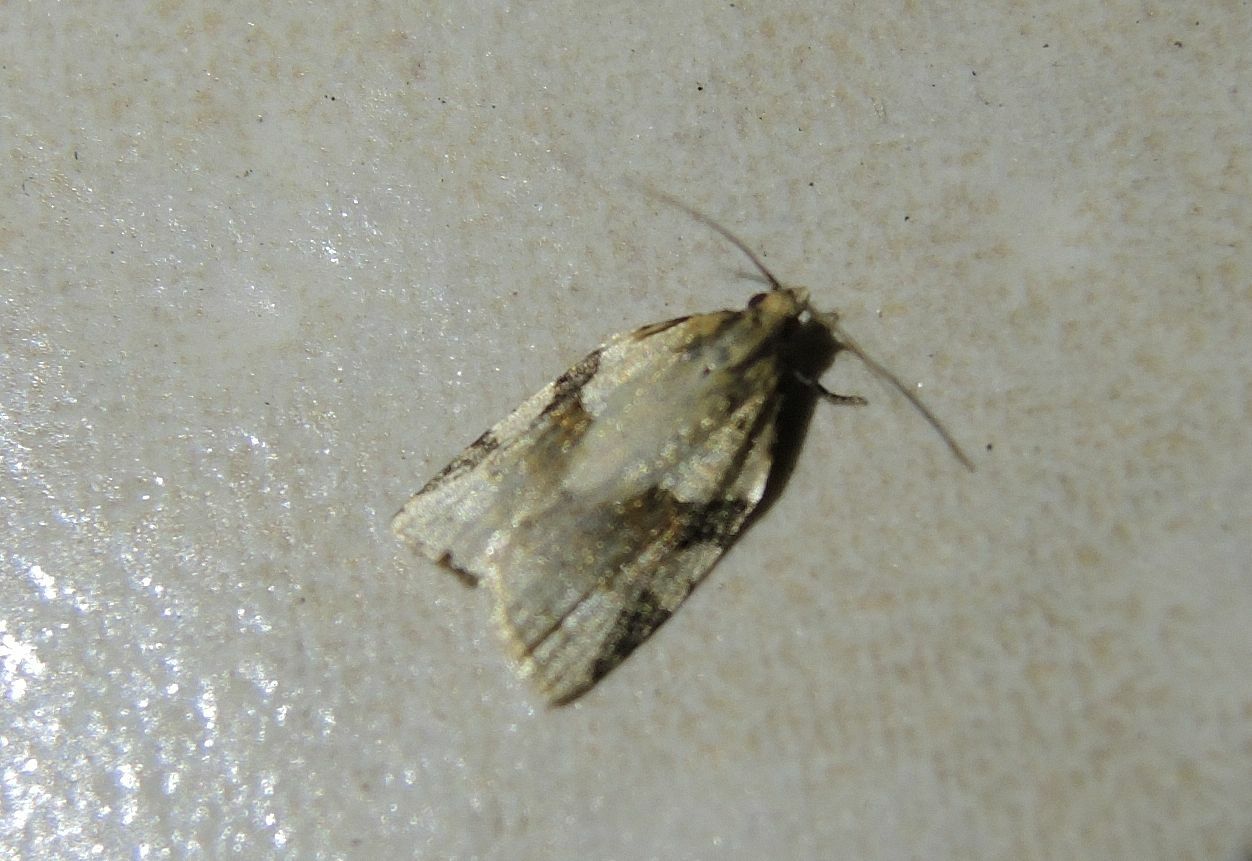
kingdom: Animalia
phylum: Arthropoda
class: Insecta
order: Lepidoptera
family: Tortricidae
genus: Clepsis
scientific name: Clepsis spectrana
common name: Cyclamen tortrix
